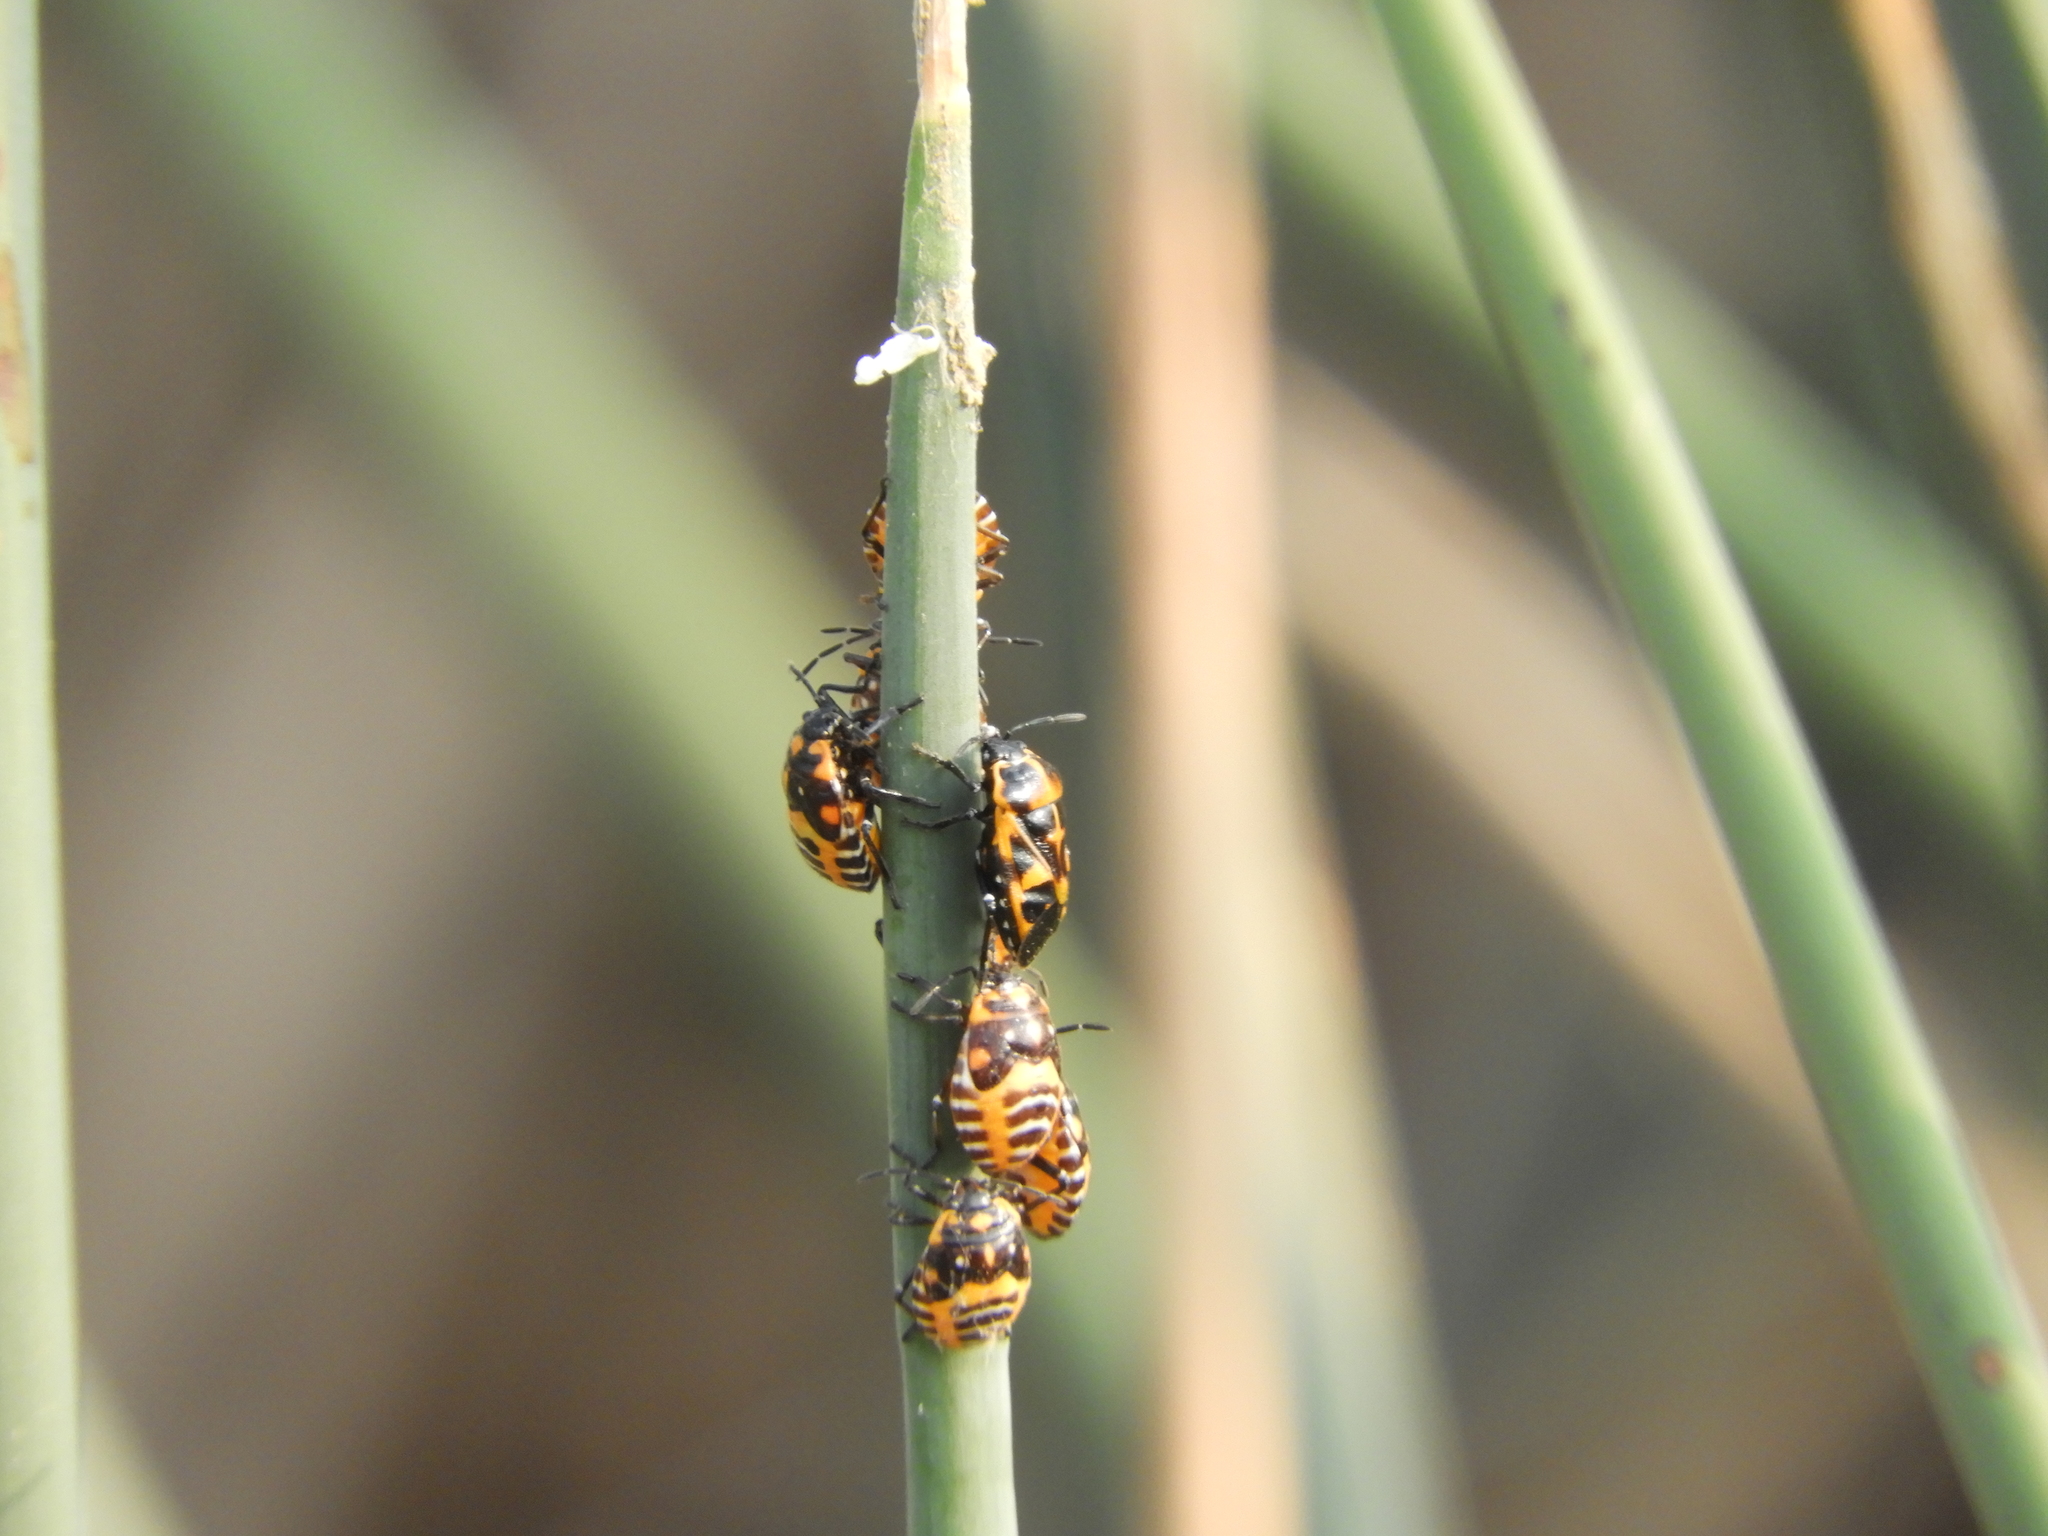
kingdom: Animalia
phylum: Arthropoda
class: Insecta
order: Hemiptera
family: Pentatomidae
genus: Murgantia
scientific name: Murgantia histrionica
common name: Harlequin bug
